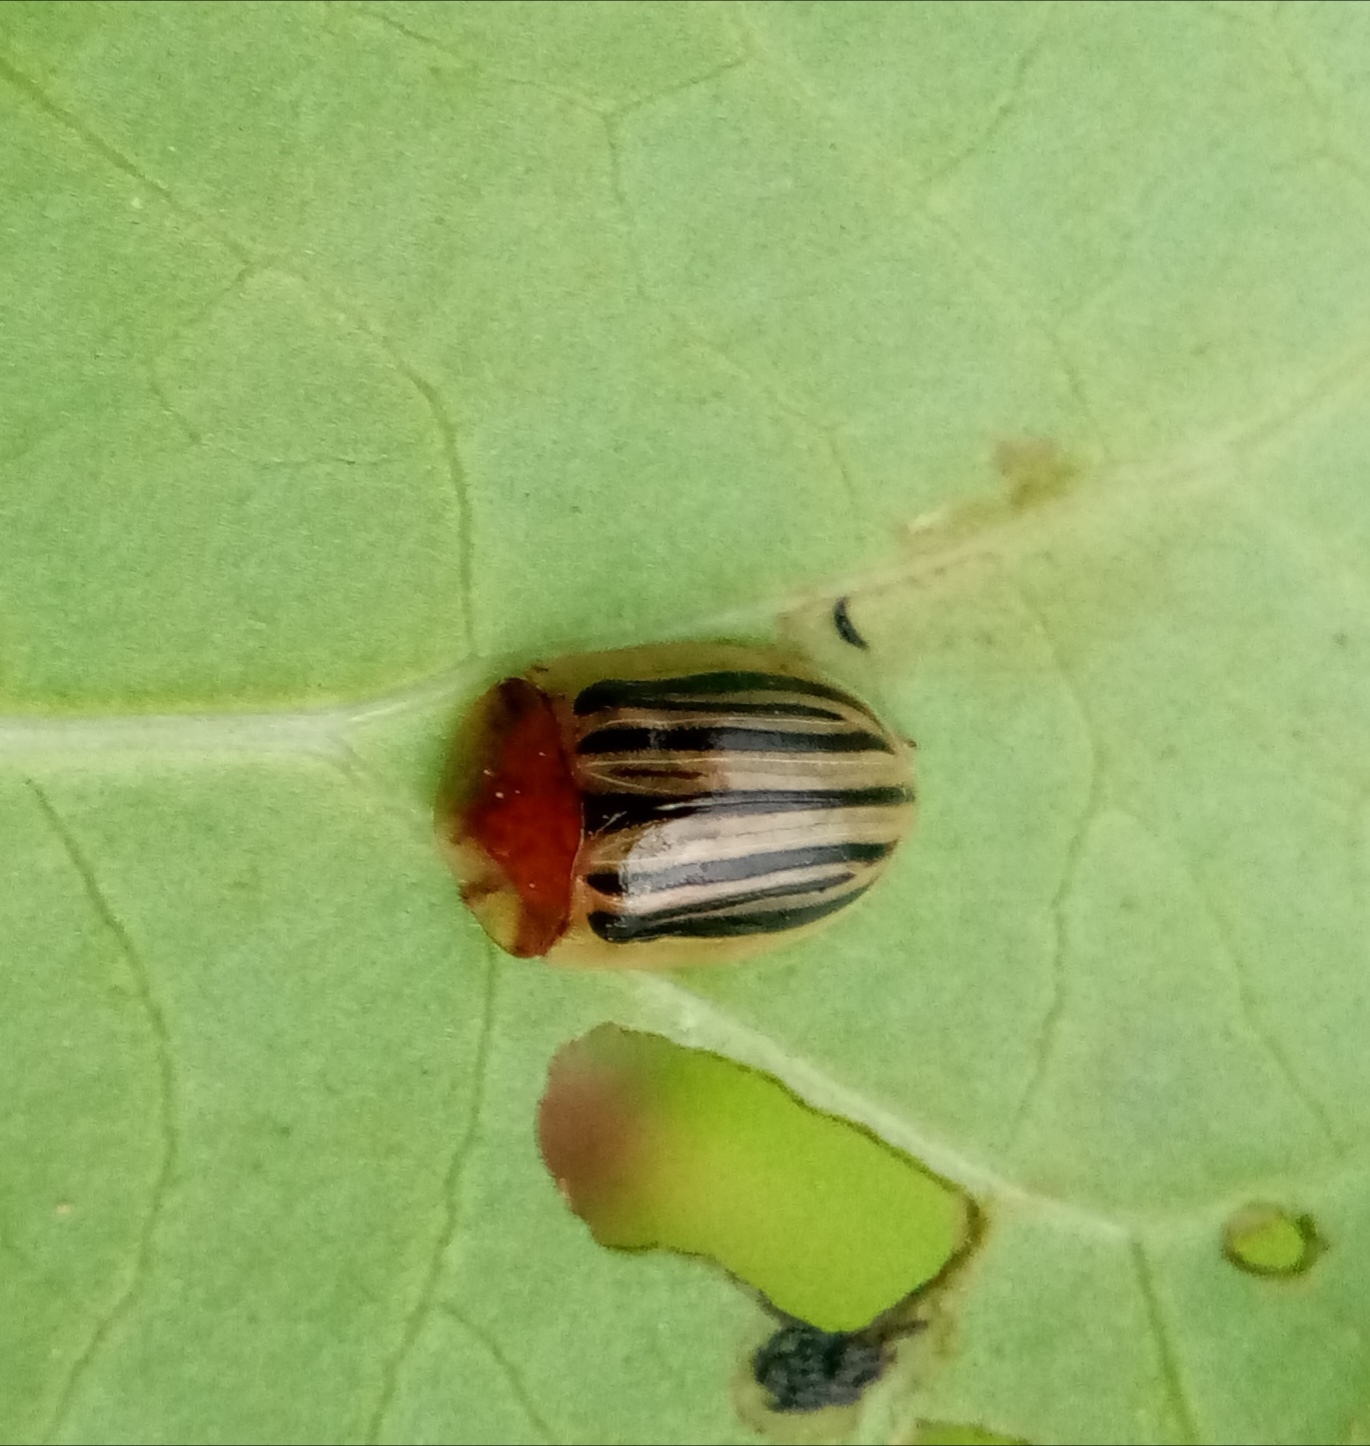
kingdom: Animalia
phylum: Arthropoda
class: Insecta
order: Coleoptera
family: Chrysomelidae
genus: Agroiconota
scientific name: Agroiconota tristriata
